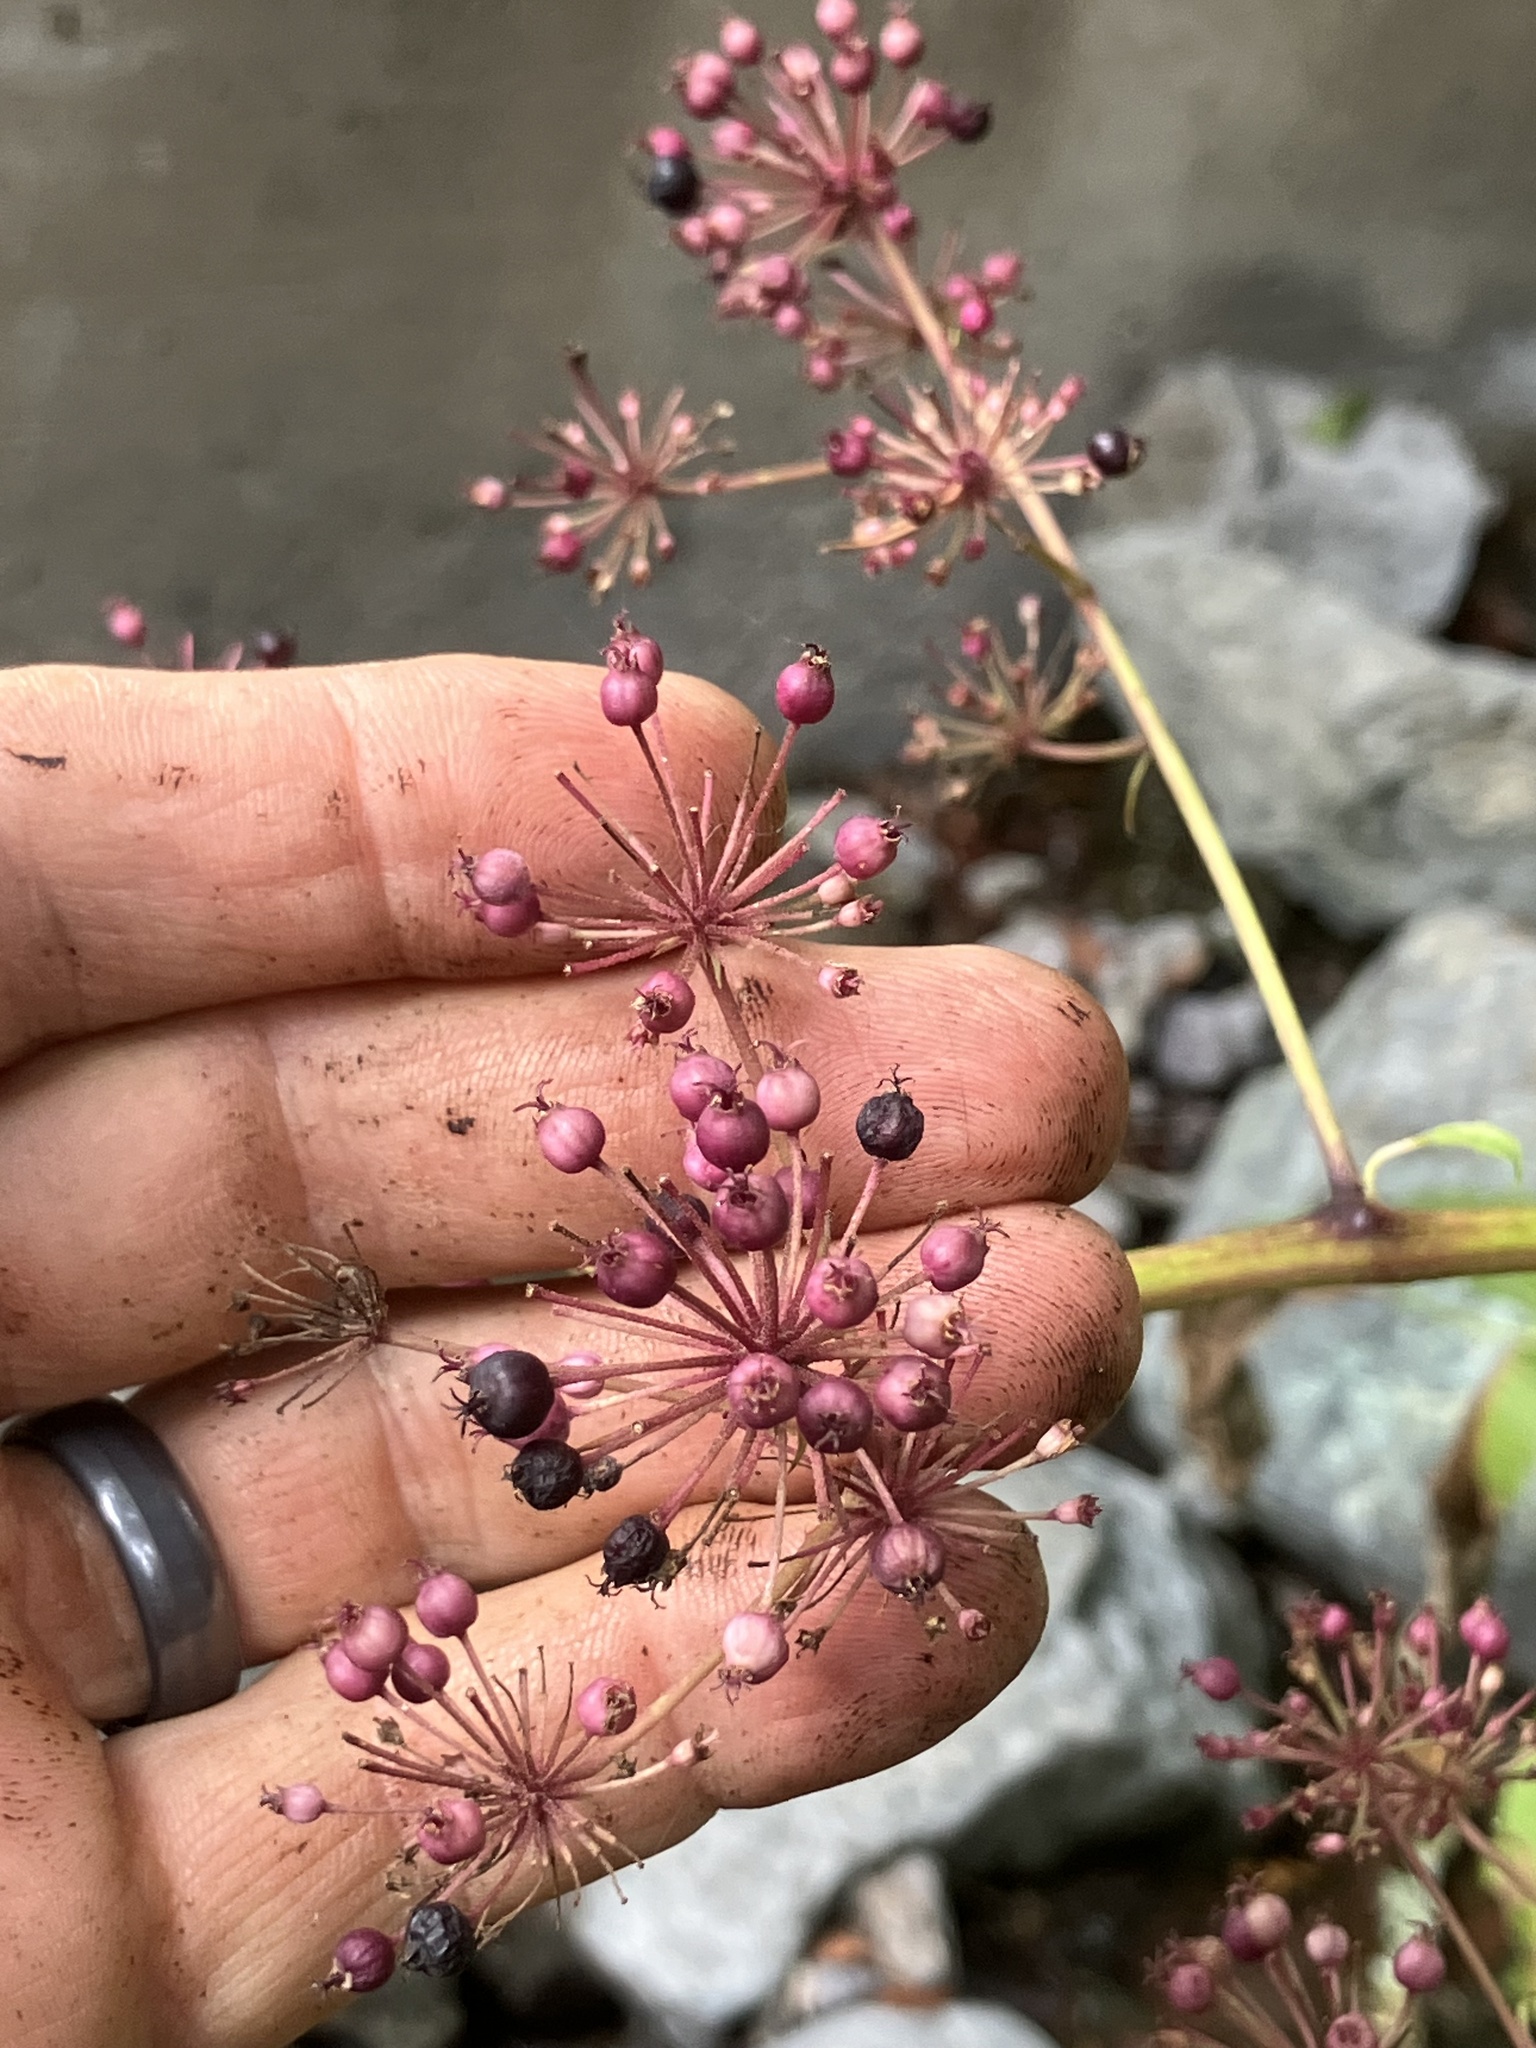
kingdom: Plantae
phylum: Tracheophyta
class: Magnoliopsida
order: Apiales
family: Araliaceae
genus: Aralia
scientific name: Aralia californica
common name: California-ginseng
